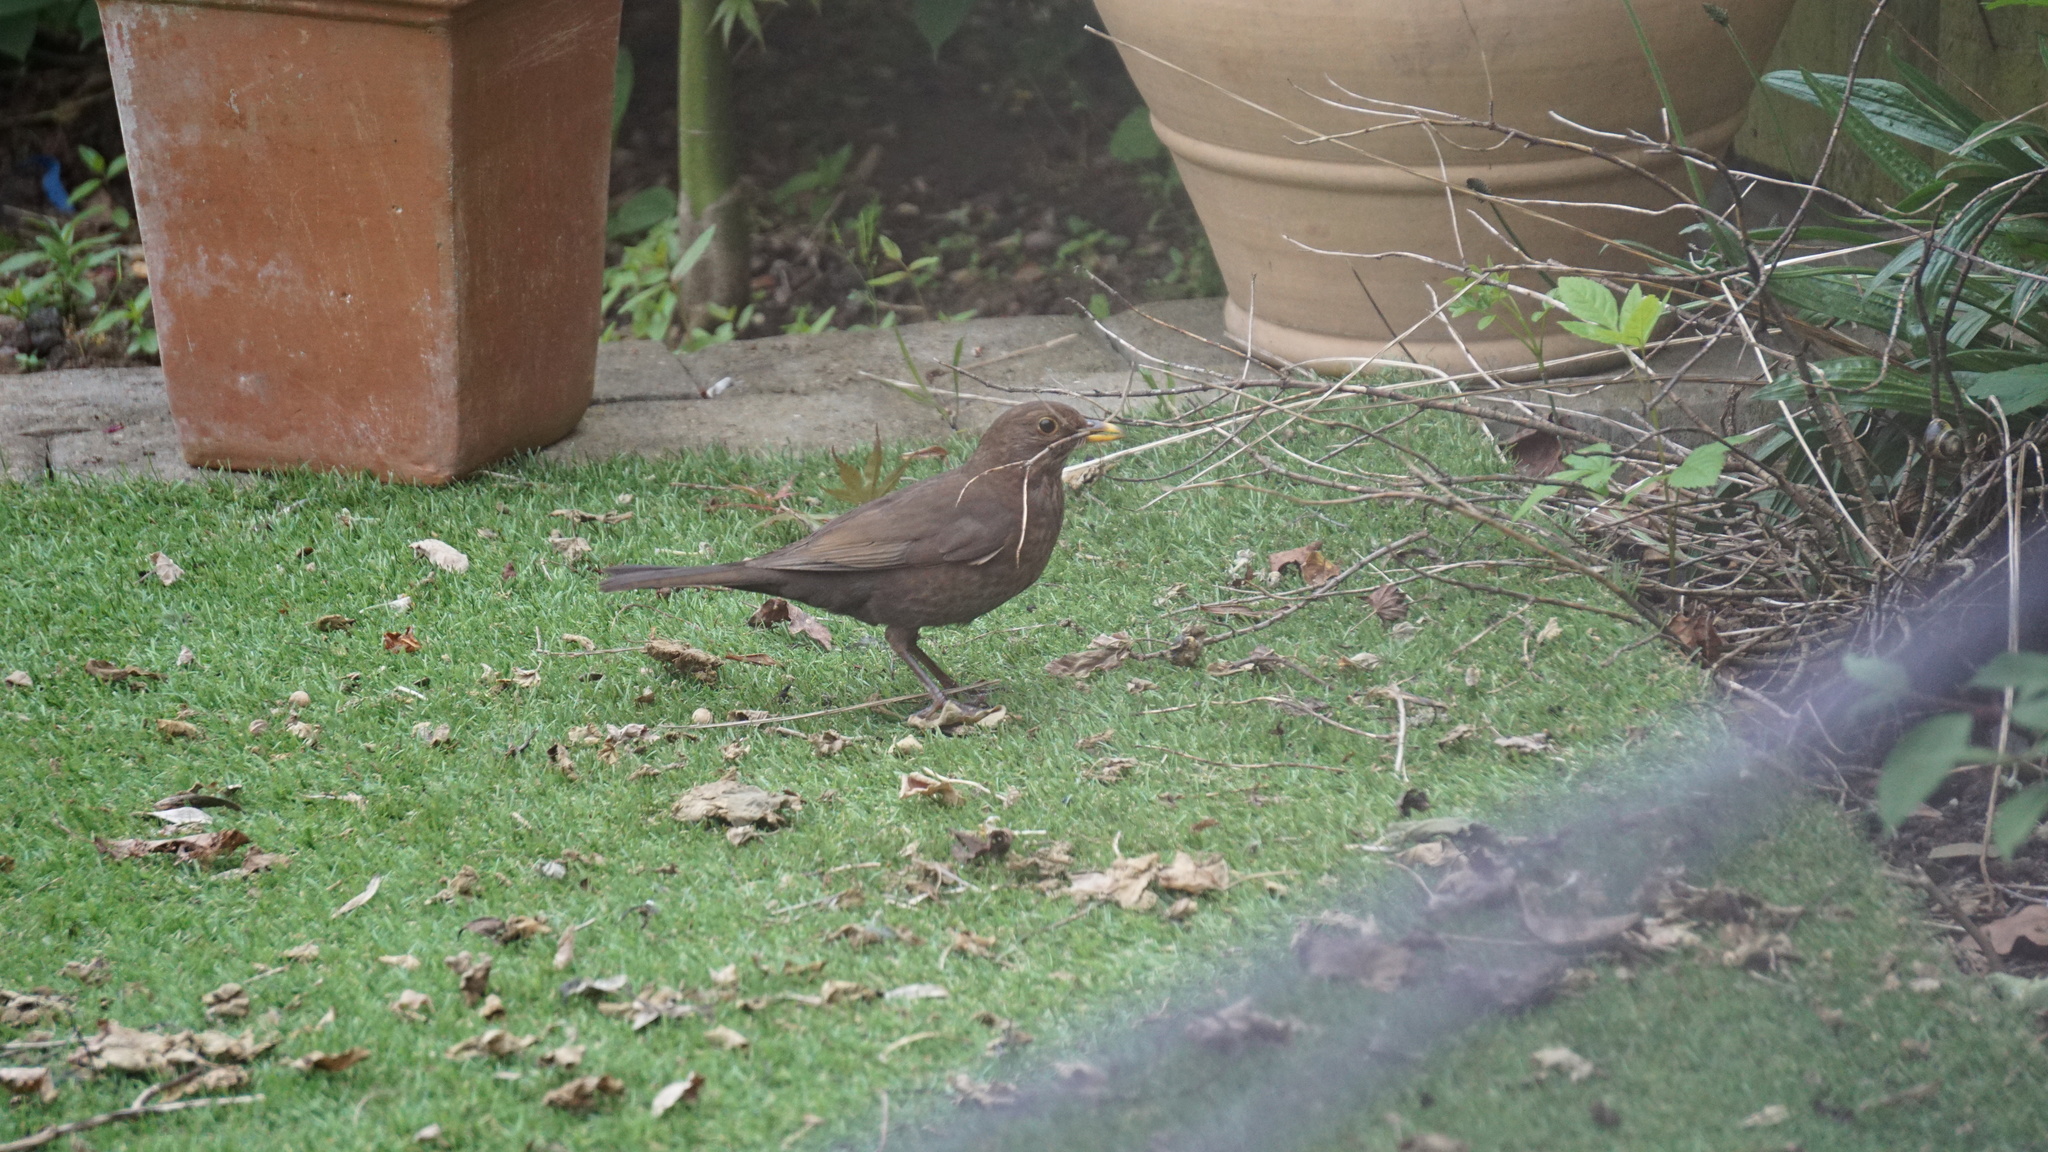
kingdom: Animalia
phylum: Chordata
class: Aves
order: Passeriformes
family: Turdidae
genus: Turdus
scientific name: Turdus merula
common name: Common blackbird
